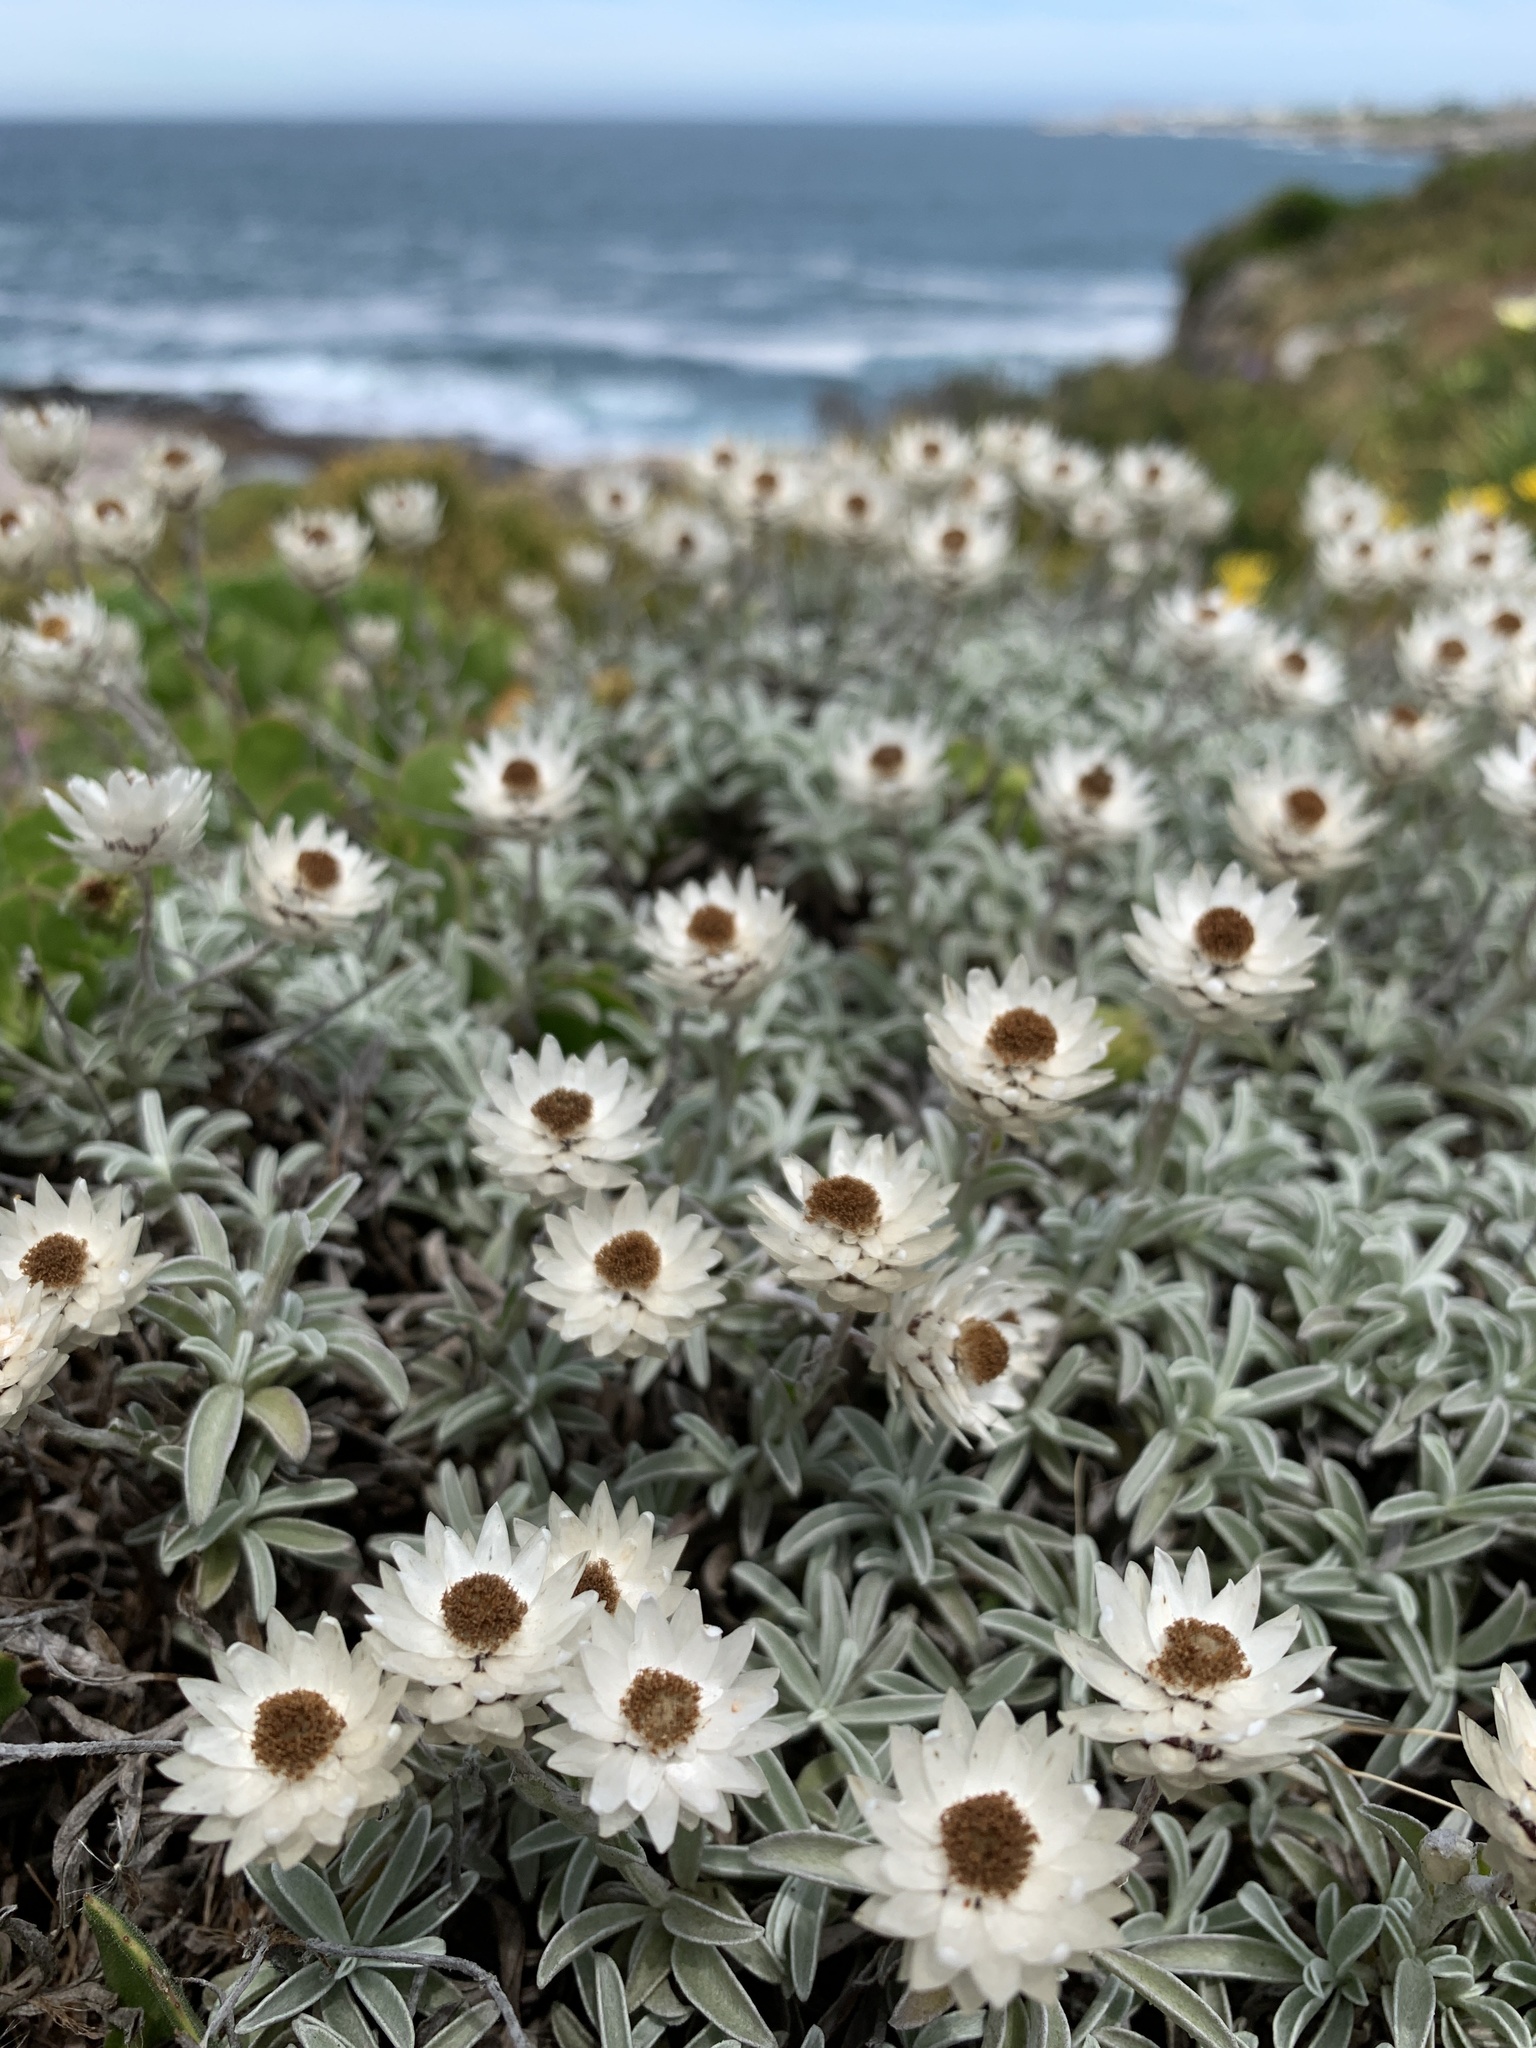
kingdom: Plantae
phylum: Tracheophyta
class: Magnoliopsida
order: Asterales
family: Asteraceae
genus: Syncarpha
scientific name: Syncarpha argyropsis
